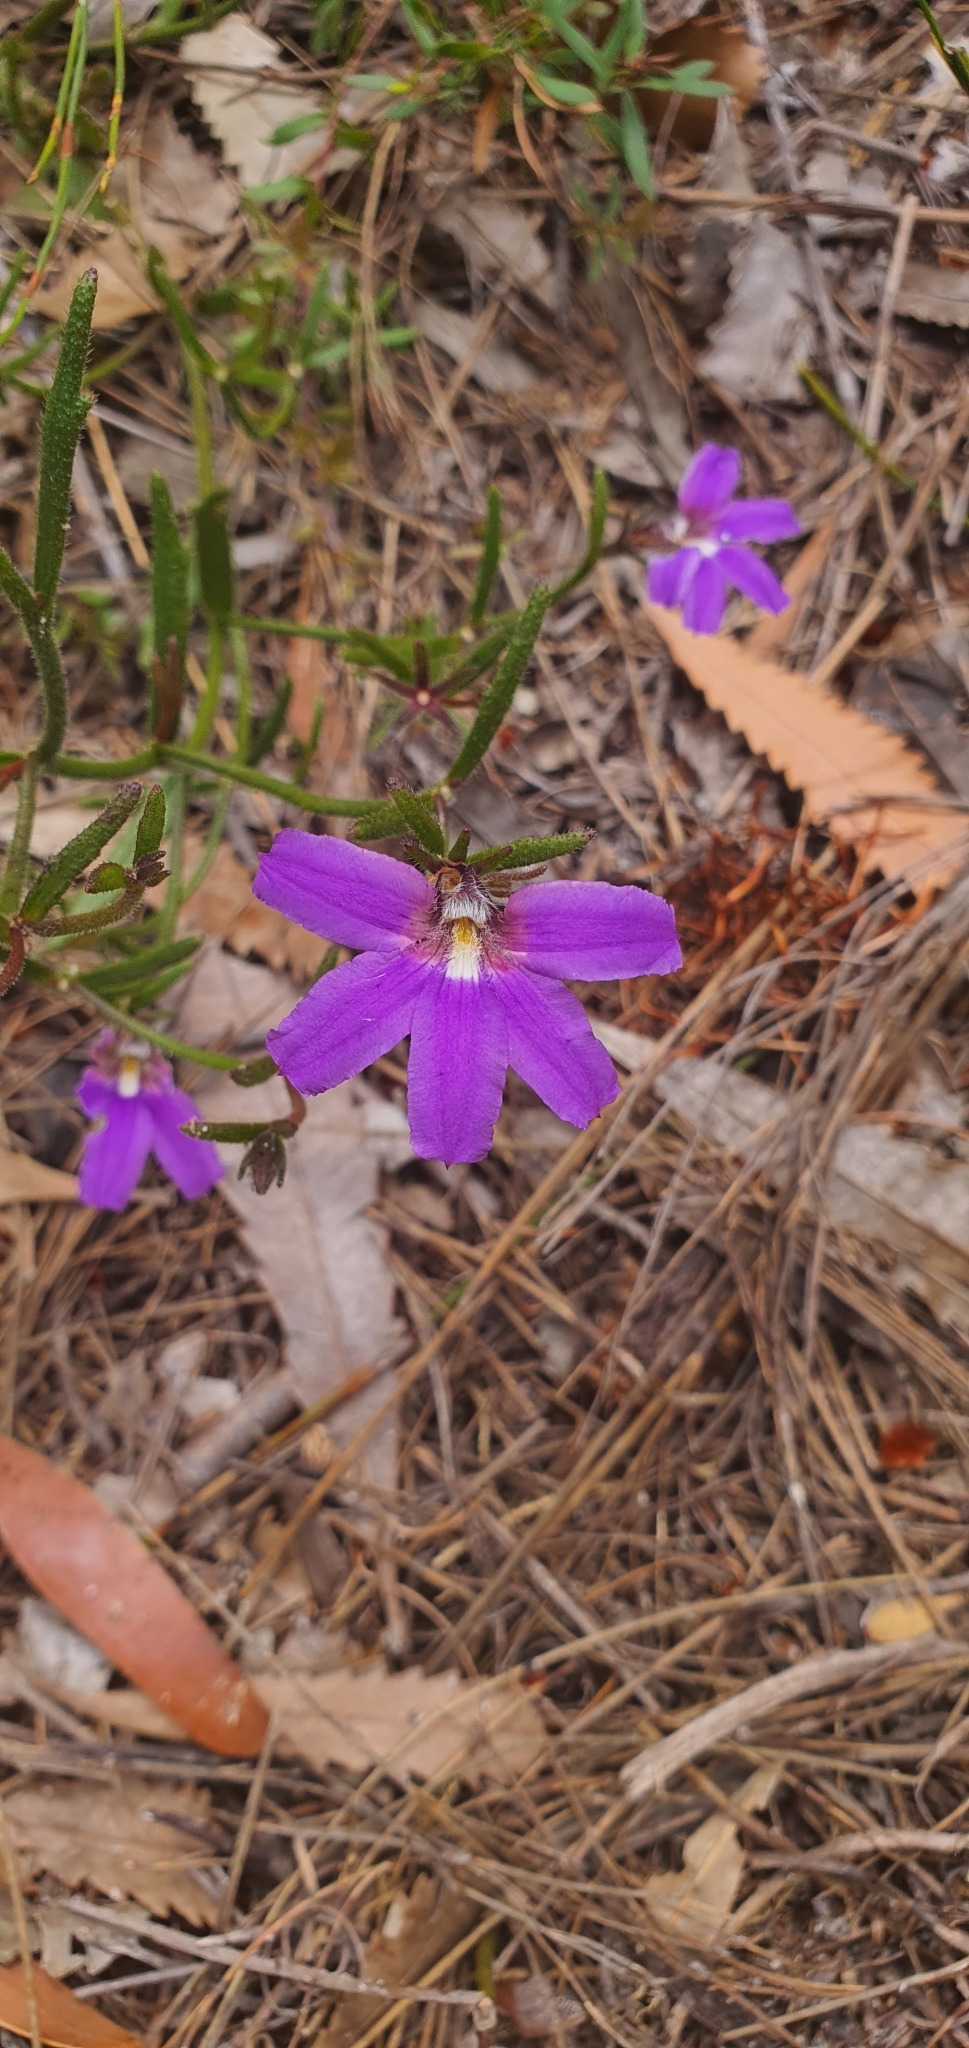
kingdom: Plantae
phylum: Tracheophyta
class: Magnoliopsida
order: Asterales
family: Goodeniaceae
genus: Scaevola
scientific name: Scaevola ramosissima
